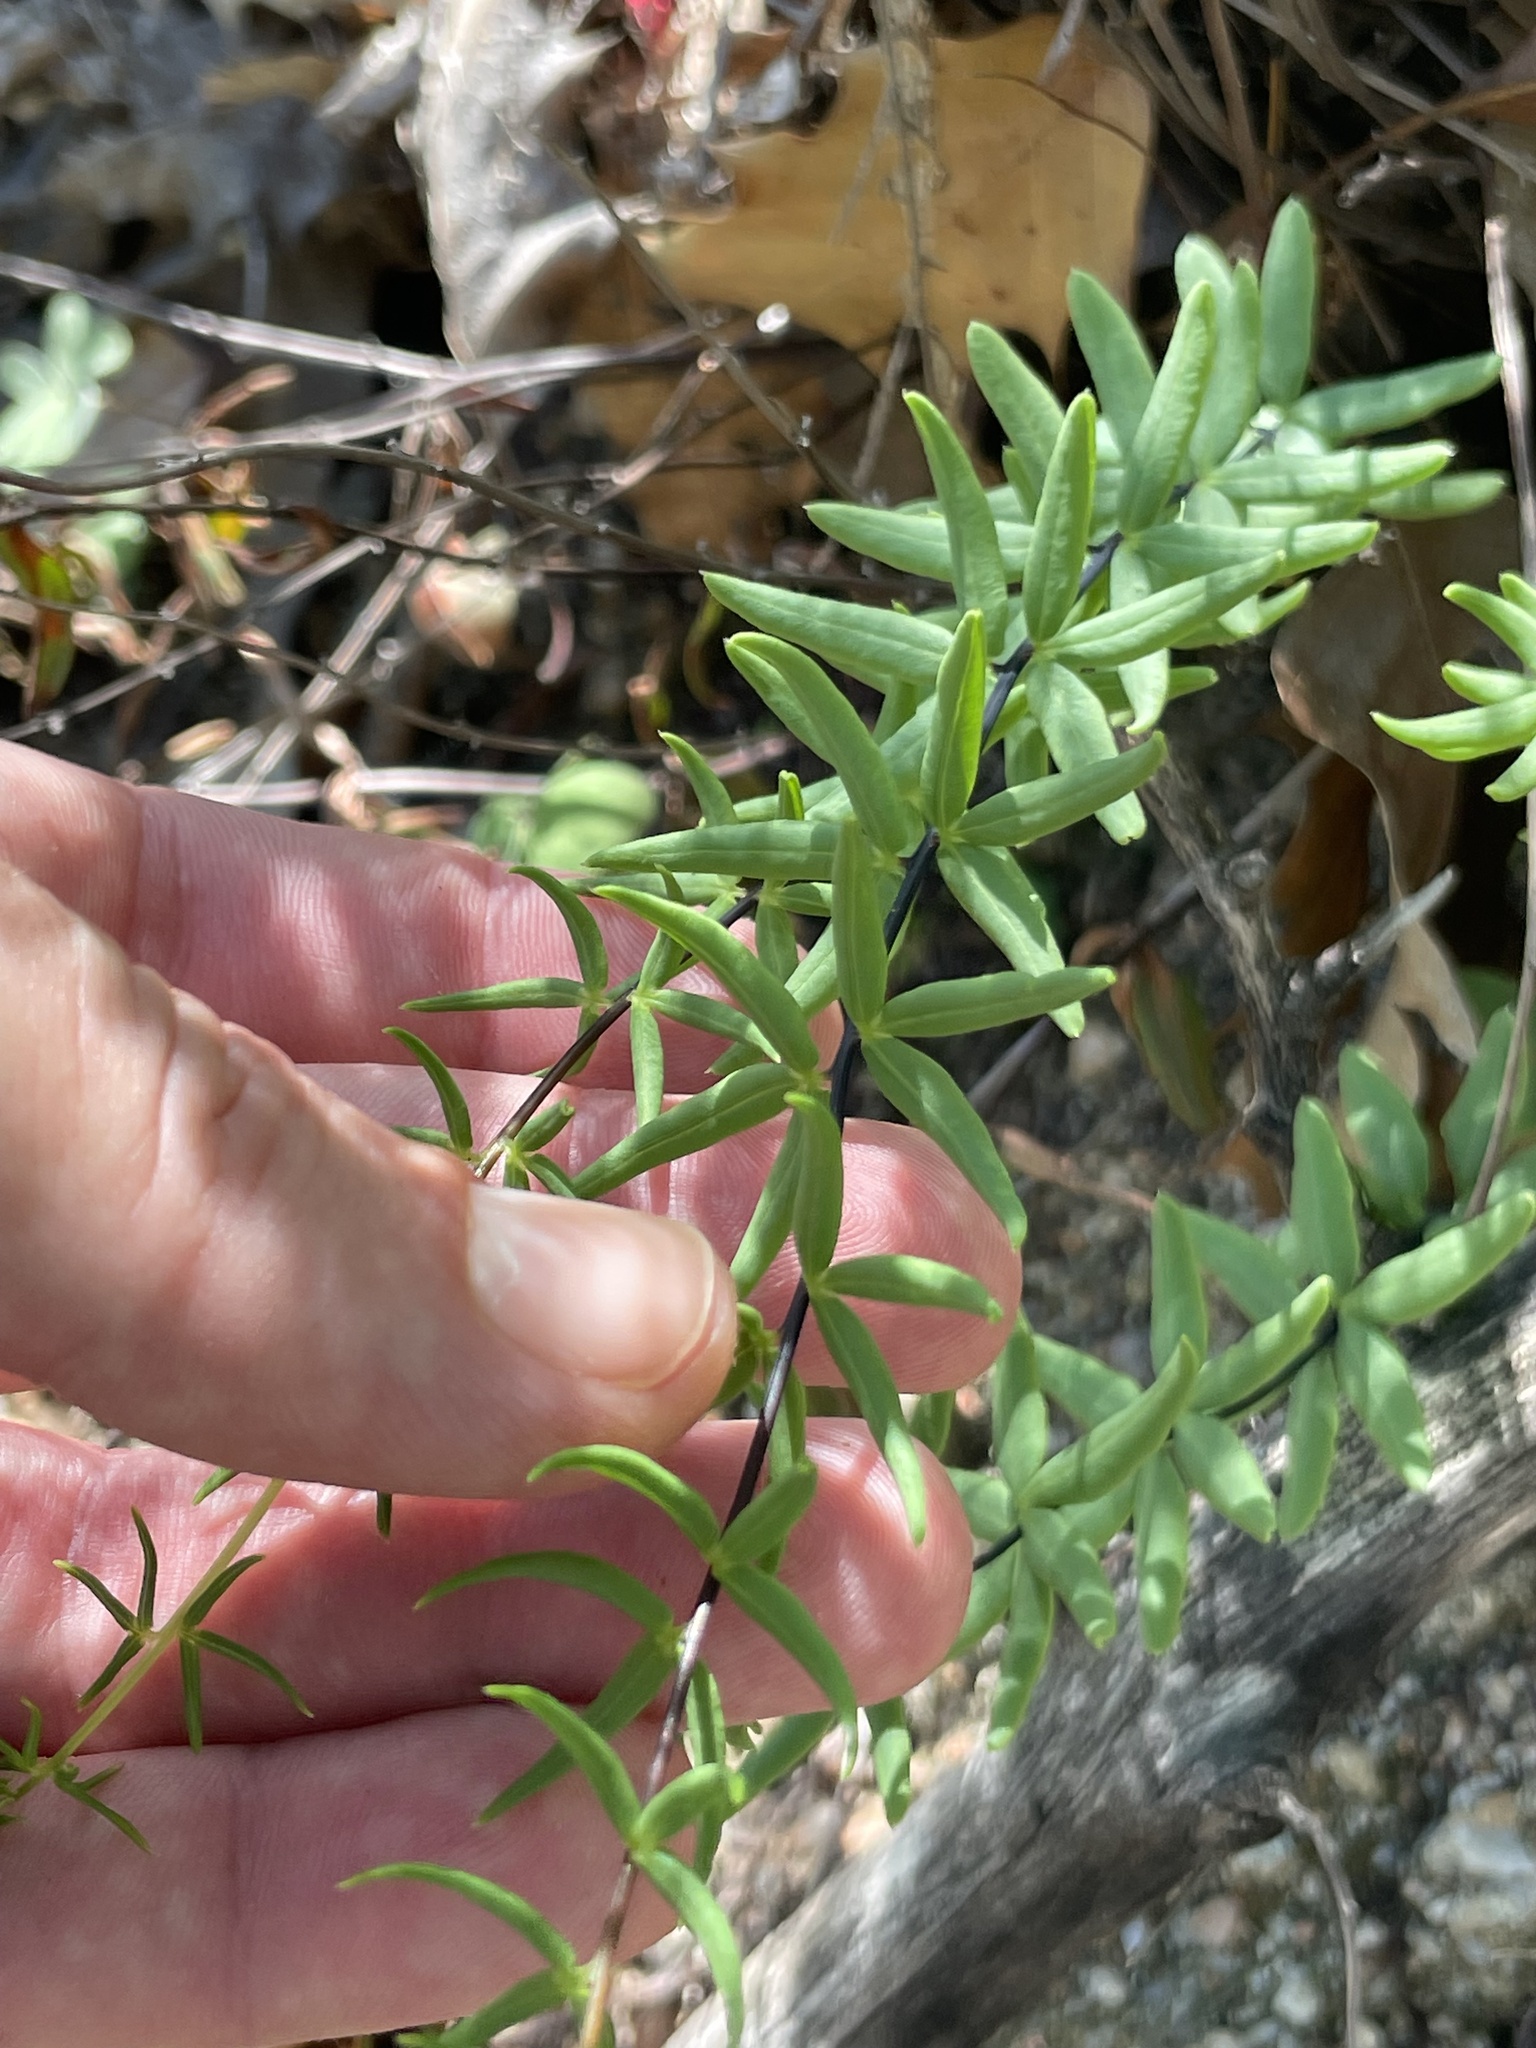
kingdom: Plantae
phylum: Tracheophyta
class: Polypodiopsida
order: Polypodiales
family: Pteridaceae
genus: Pellaea
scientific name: Pellaea ternifolia
